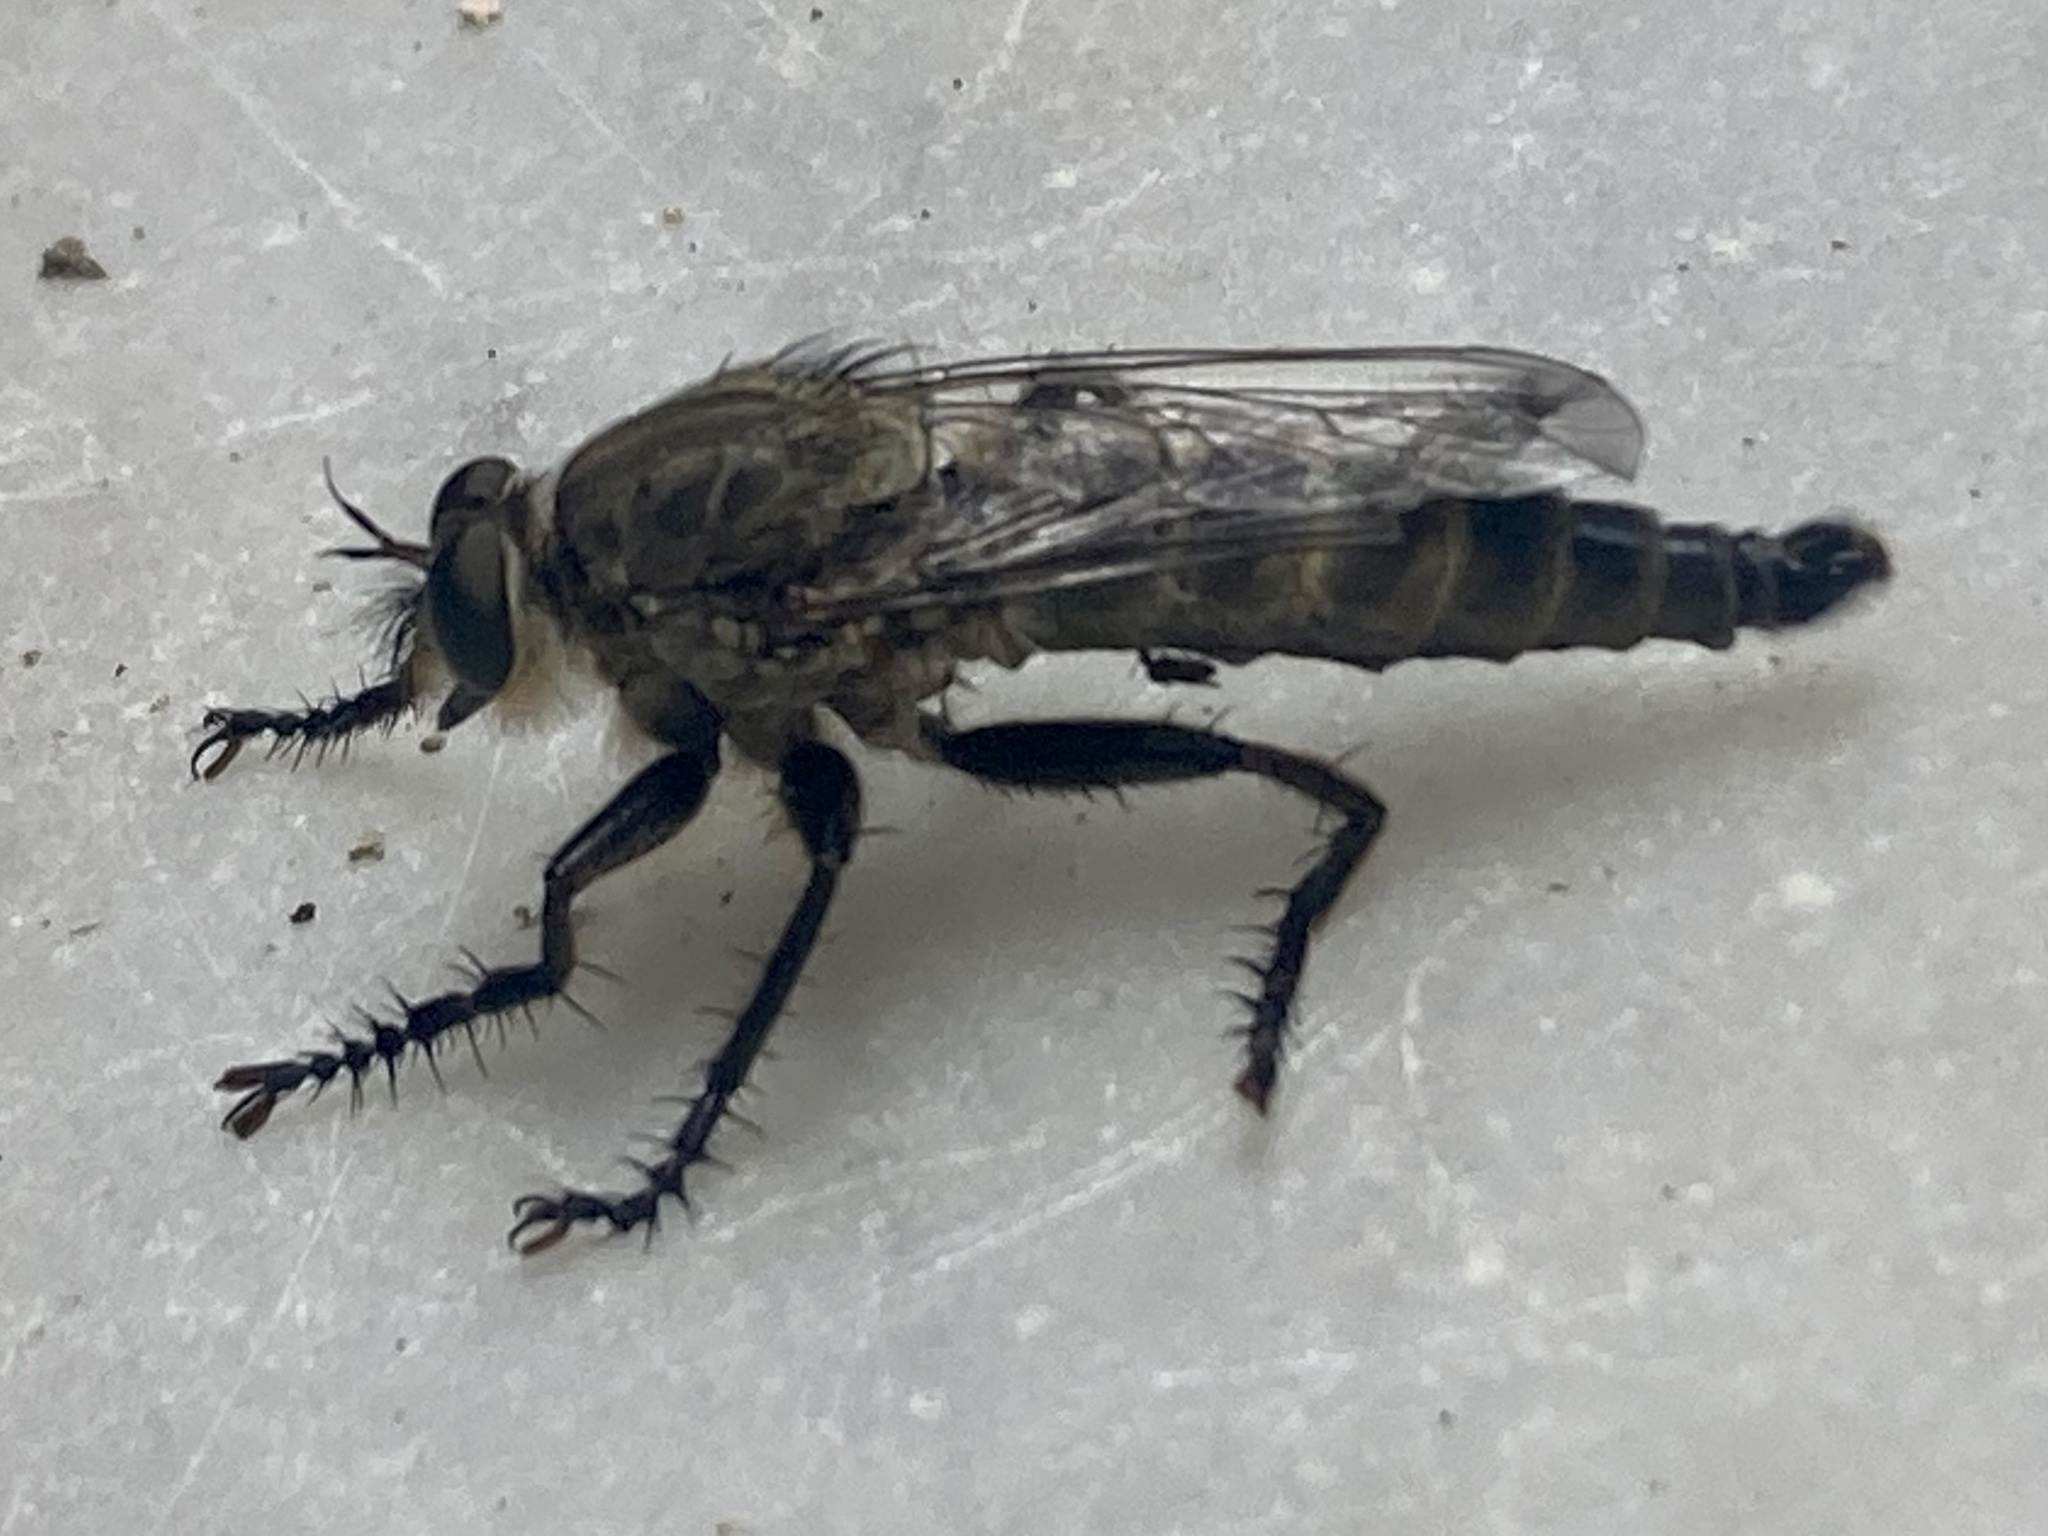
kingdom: Animalia
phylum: Arthropoda
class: Insecta
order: Diptera
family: Asilidae
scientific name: Asilidae
